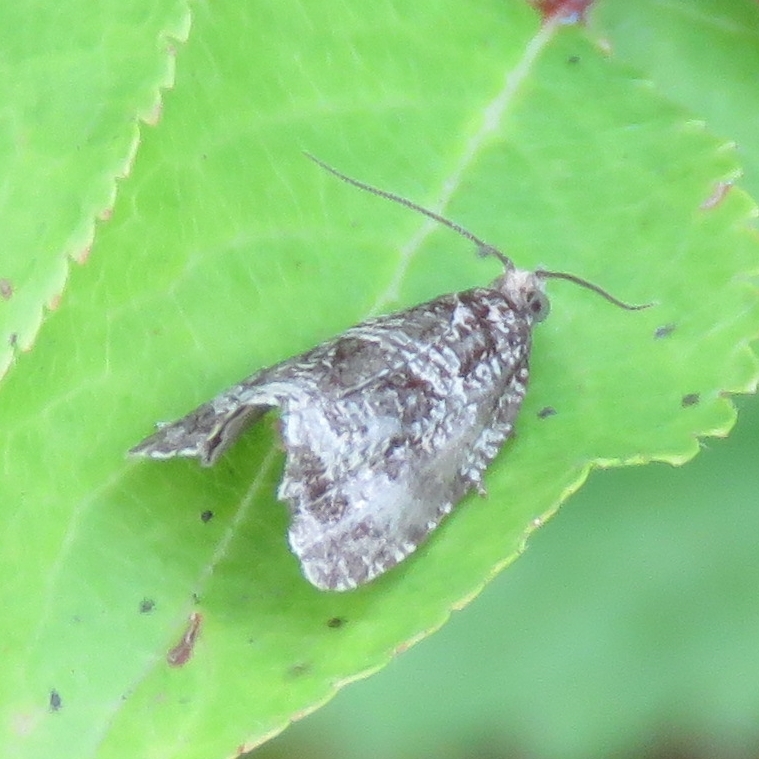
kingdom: Animalia
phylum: Arthropoda
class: Insecta
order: Lepidoptera
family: Tortricidae
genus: Syricoris
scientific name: Syricoris lacunana
